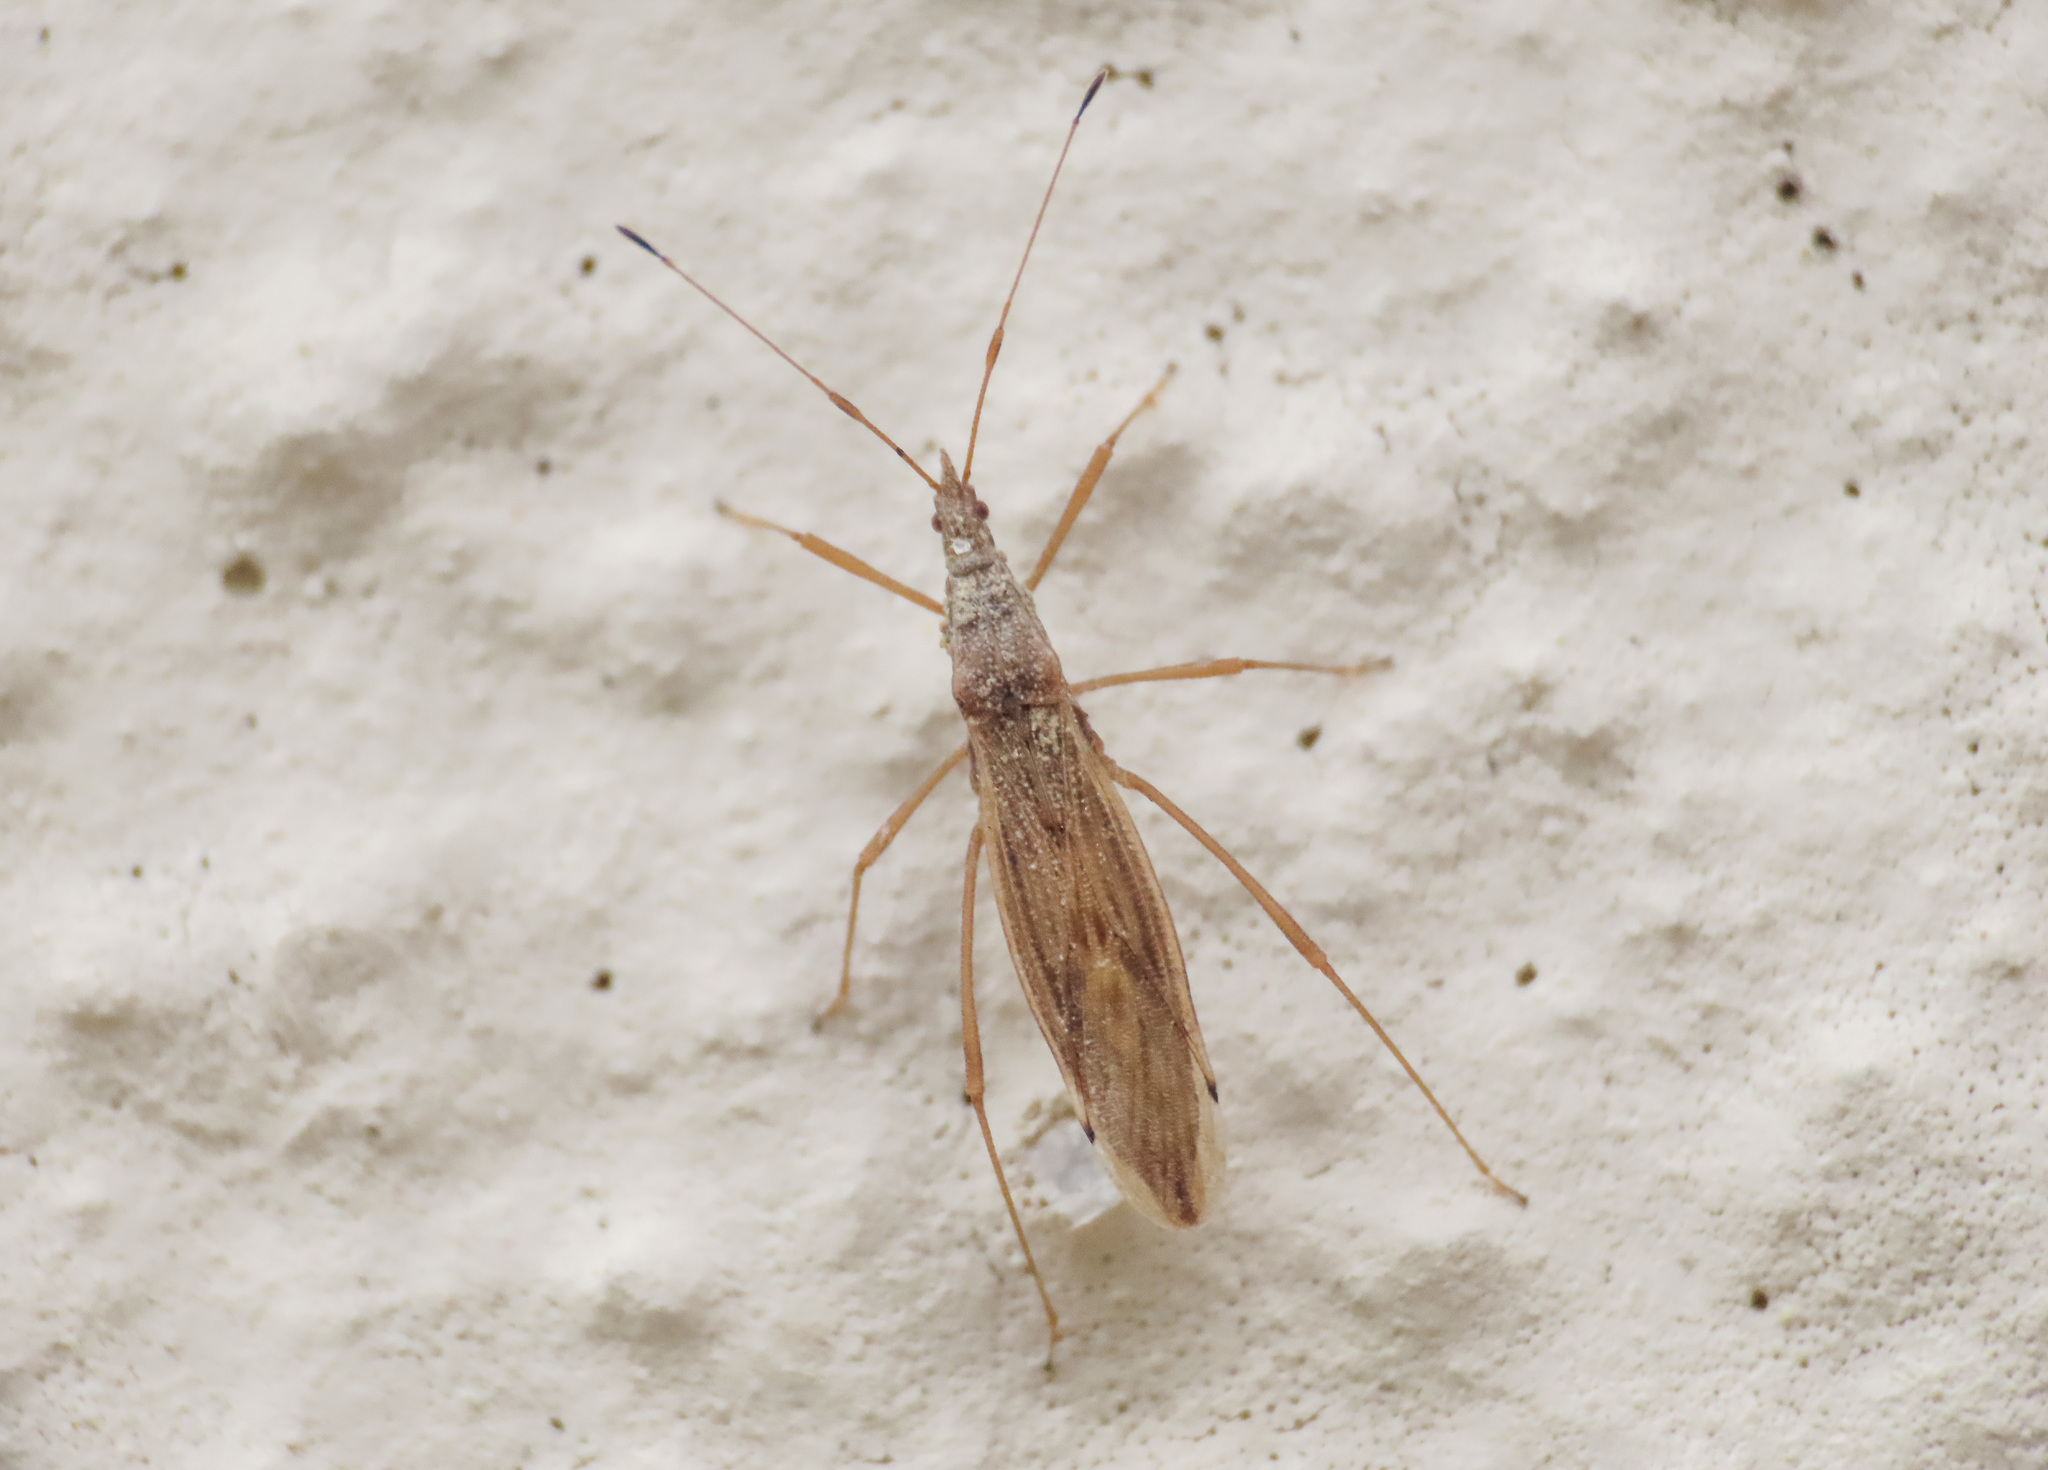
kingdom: Animalia
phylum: Arthropoda
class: Insecta
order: Hemiptera
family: Berytidae
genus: Berytinus
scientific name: Berytinus montivagus
